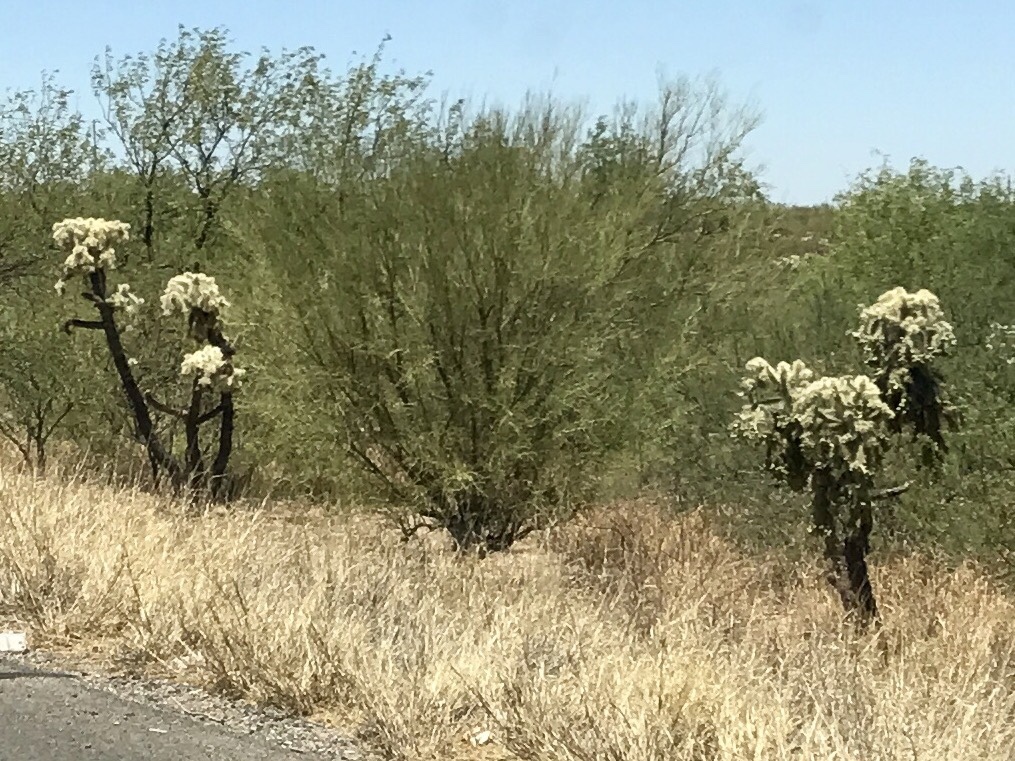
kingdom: Plantae
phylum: Tracheophyta
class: Magnoliopsida
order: Caryophyllales
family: Cactaceae
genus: Cylindropuntia
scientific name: Cylindropuntia fulgida
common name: Jumping cholla
